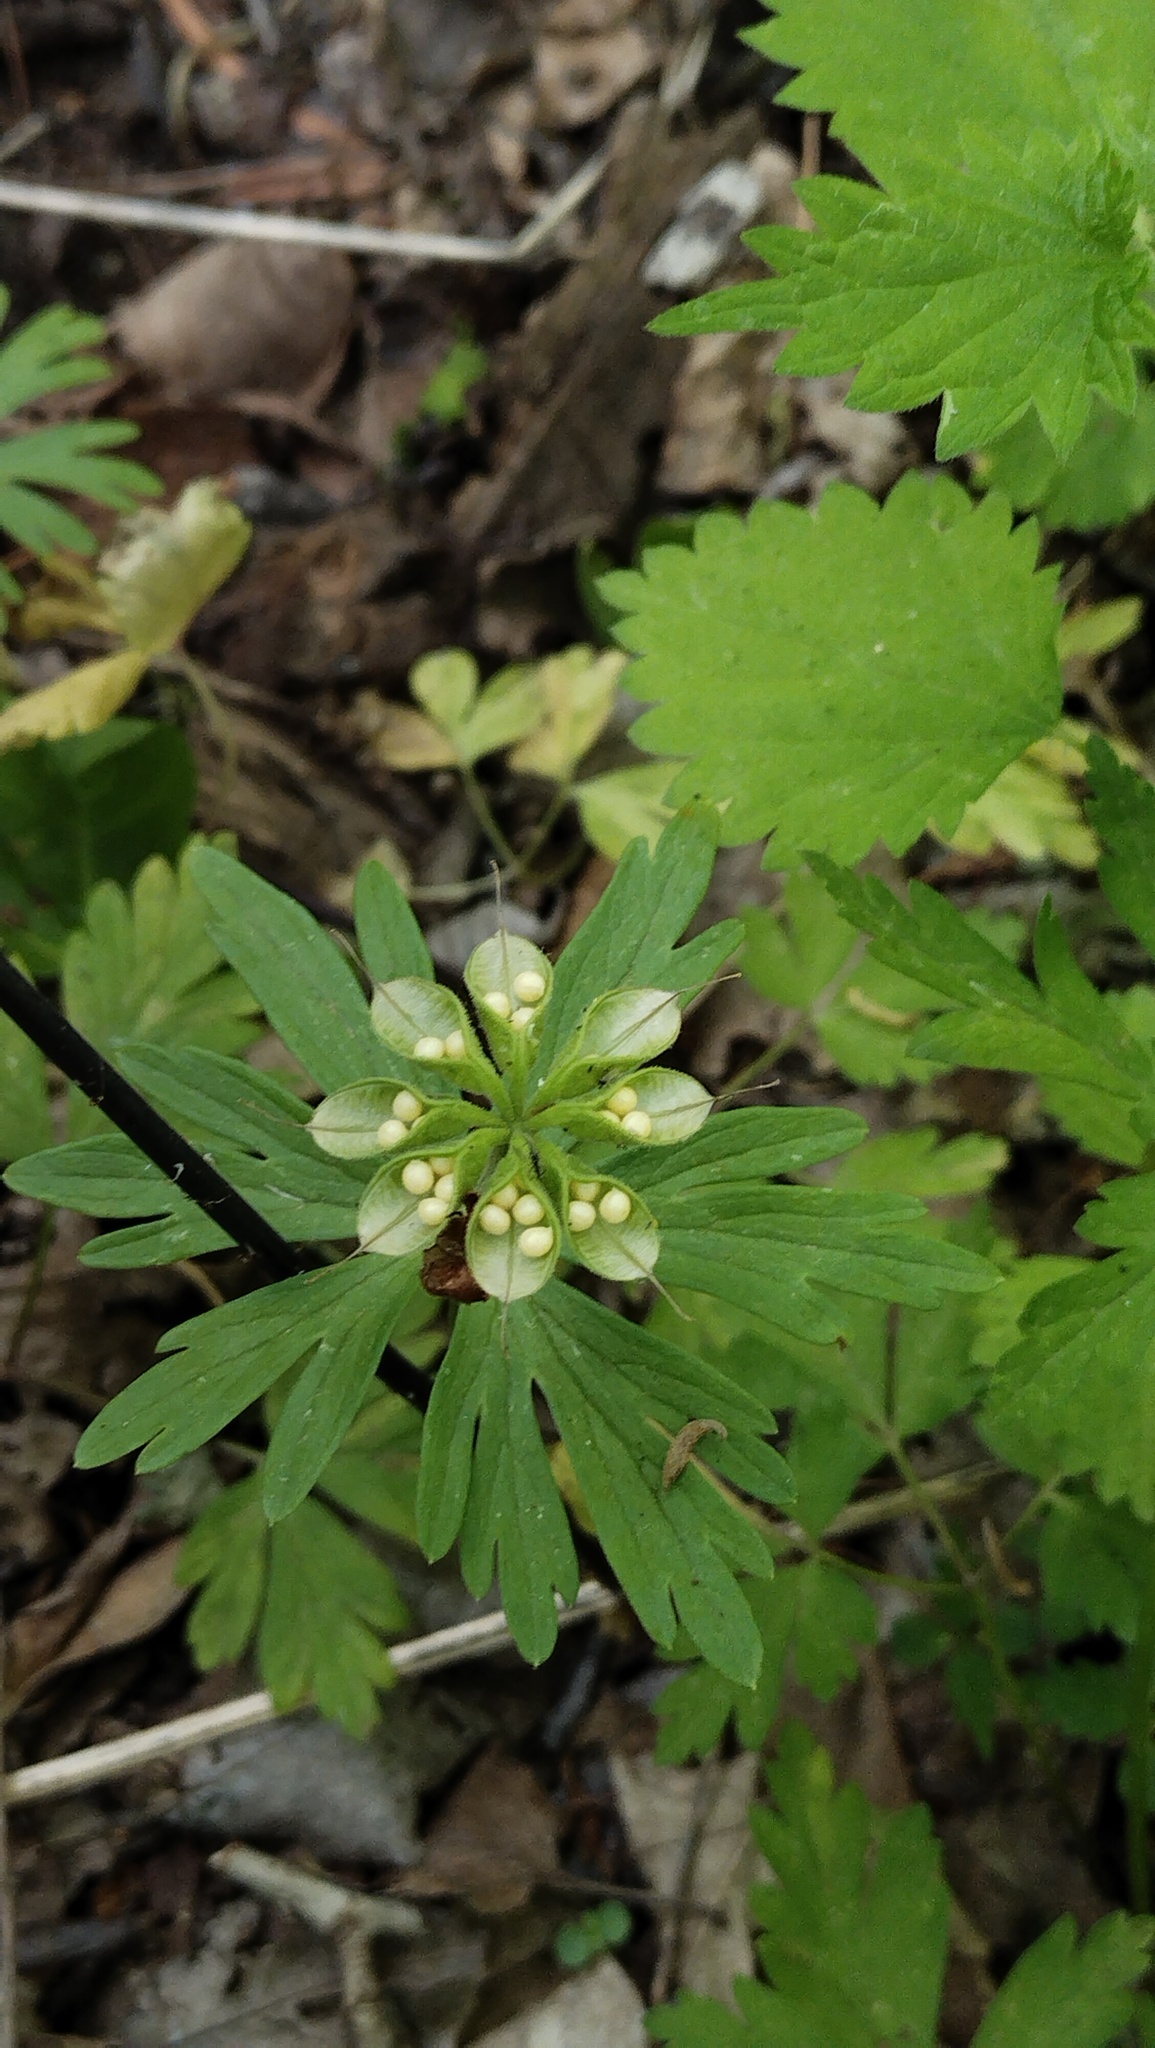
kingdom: Plantae
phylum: Tracheophyta
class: Magnoliopsida
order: Ranunculales
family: Ranunculaceae
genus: Eranthis
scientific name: Eranthis stellata
